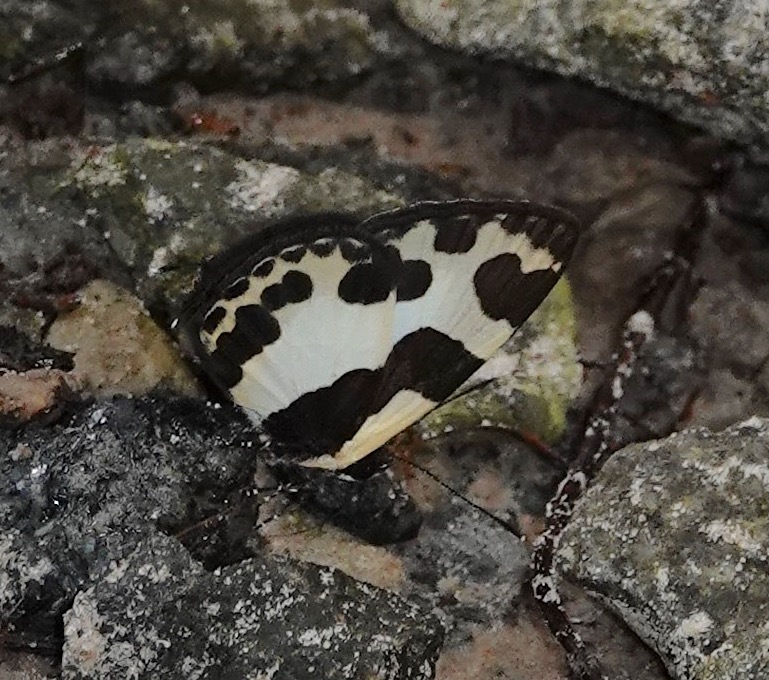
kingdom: Animalia
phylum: Arthropoda
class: Insecta
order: Lepidoptera
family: Lycaenidae
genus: Caleta
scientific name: Caleta elna
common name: Elbowed pierrot
